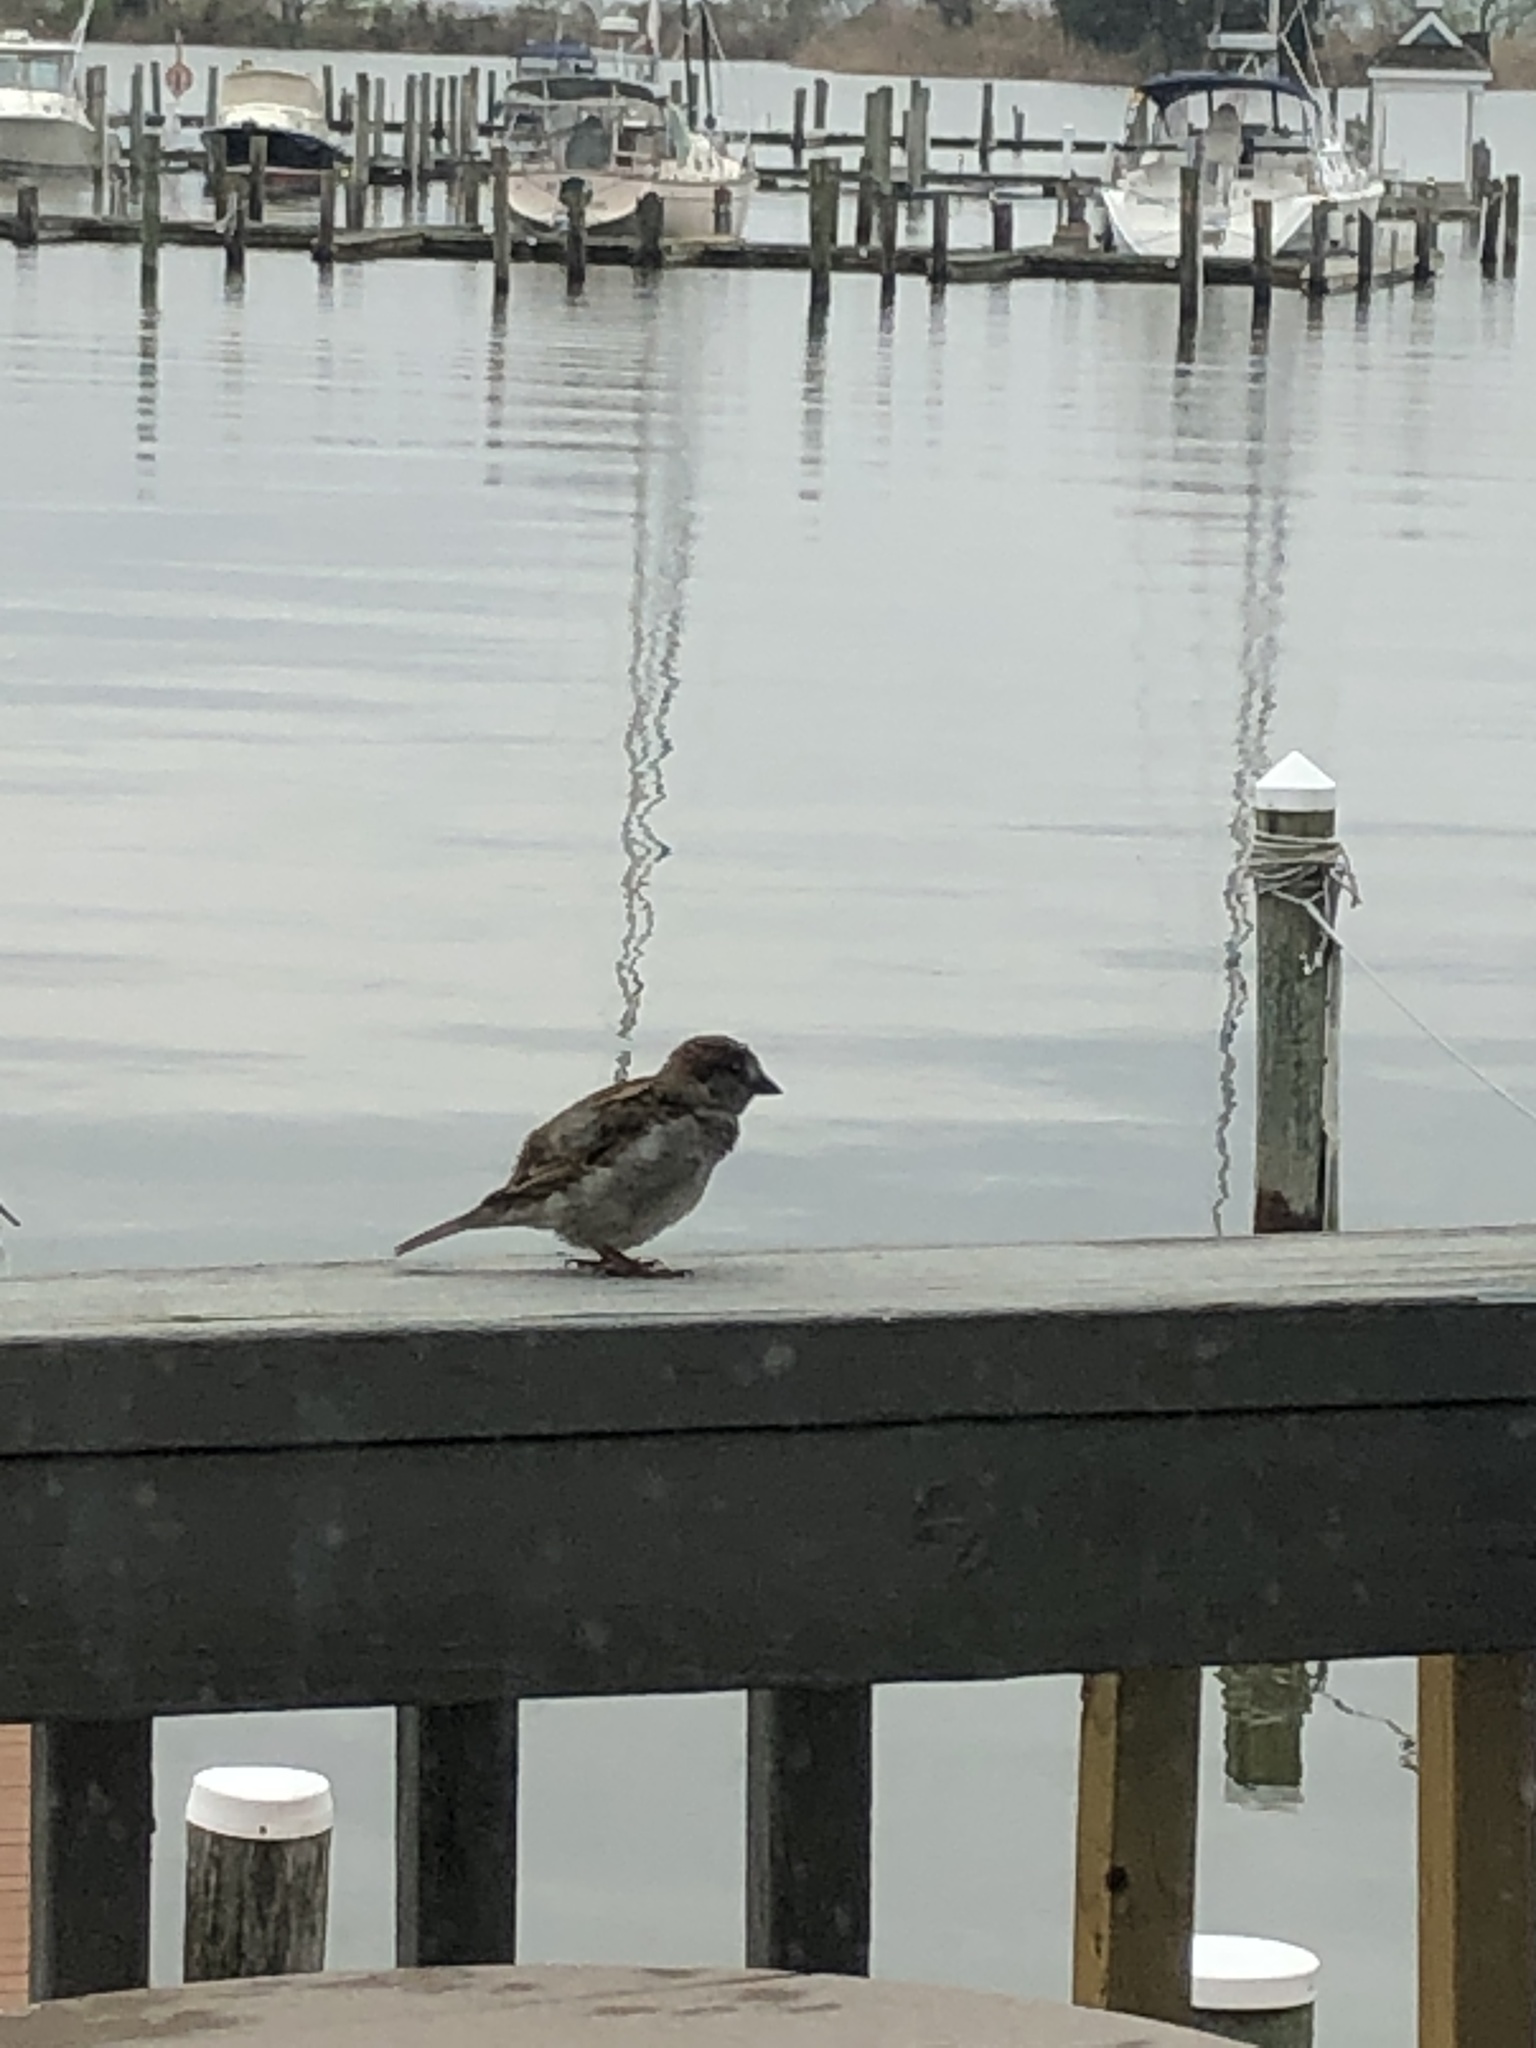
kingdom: Animalia
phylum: Chordata
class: Aves
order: Passeriformes
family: Passeridae
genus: Passer
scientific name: Passer domesticus
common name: House sparrow
